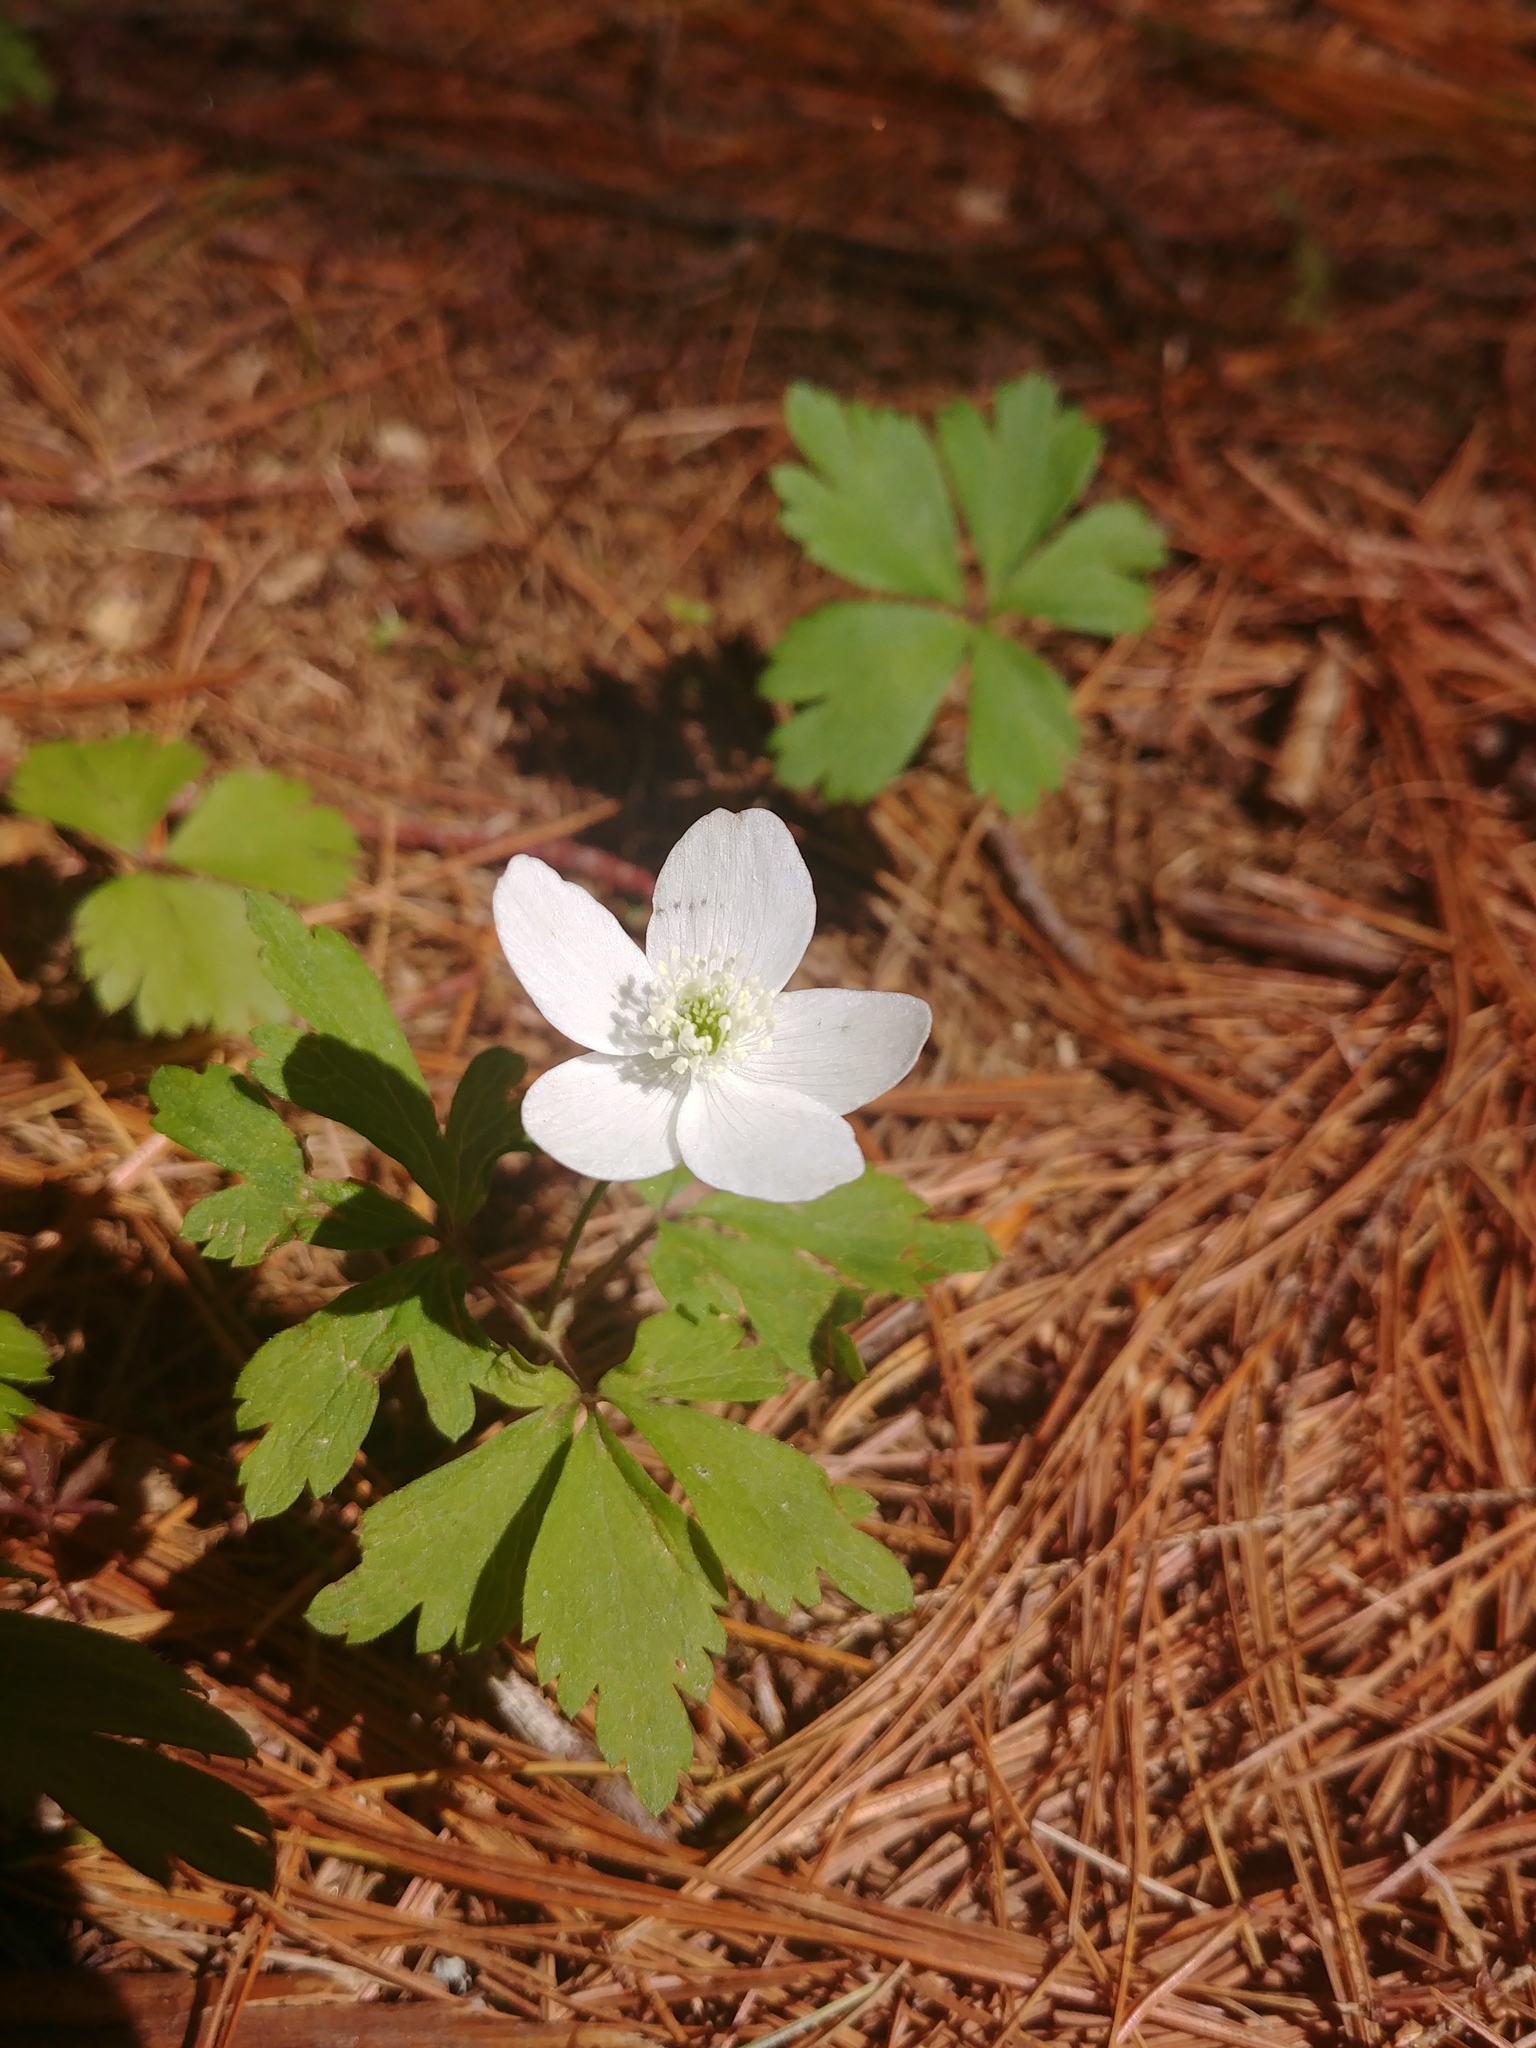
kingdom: Plantae
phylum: Tracheophyta
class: Magnoliopsida
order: Ranunculales
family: Ranunculaceae
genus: Anemone
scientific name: Anemone quinquefolia
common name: Wood anemone
